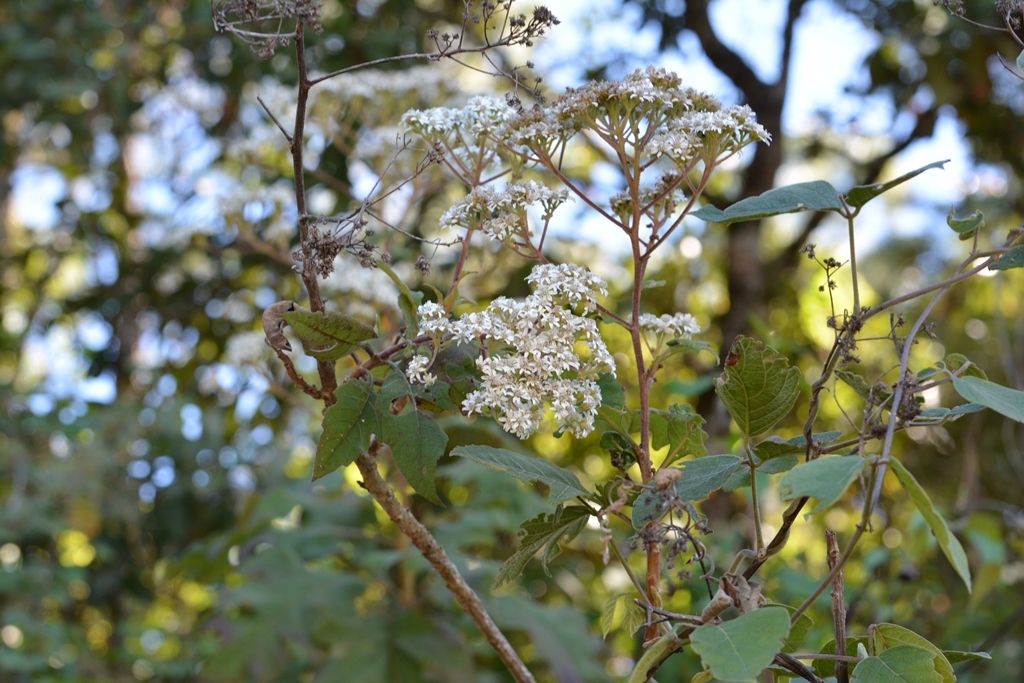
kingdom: Plantae
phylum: Tracheophyta
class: Magnoliopsida
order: Asterales
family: Asteraceae
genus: Verbesina
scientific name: Verbesina turbacensis
